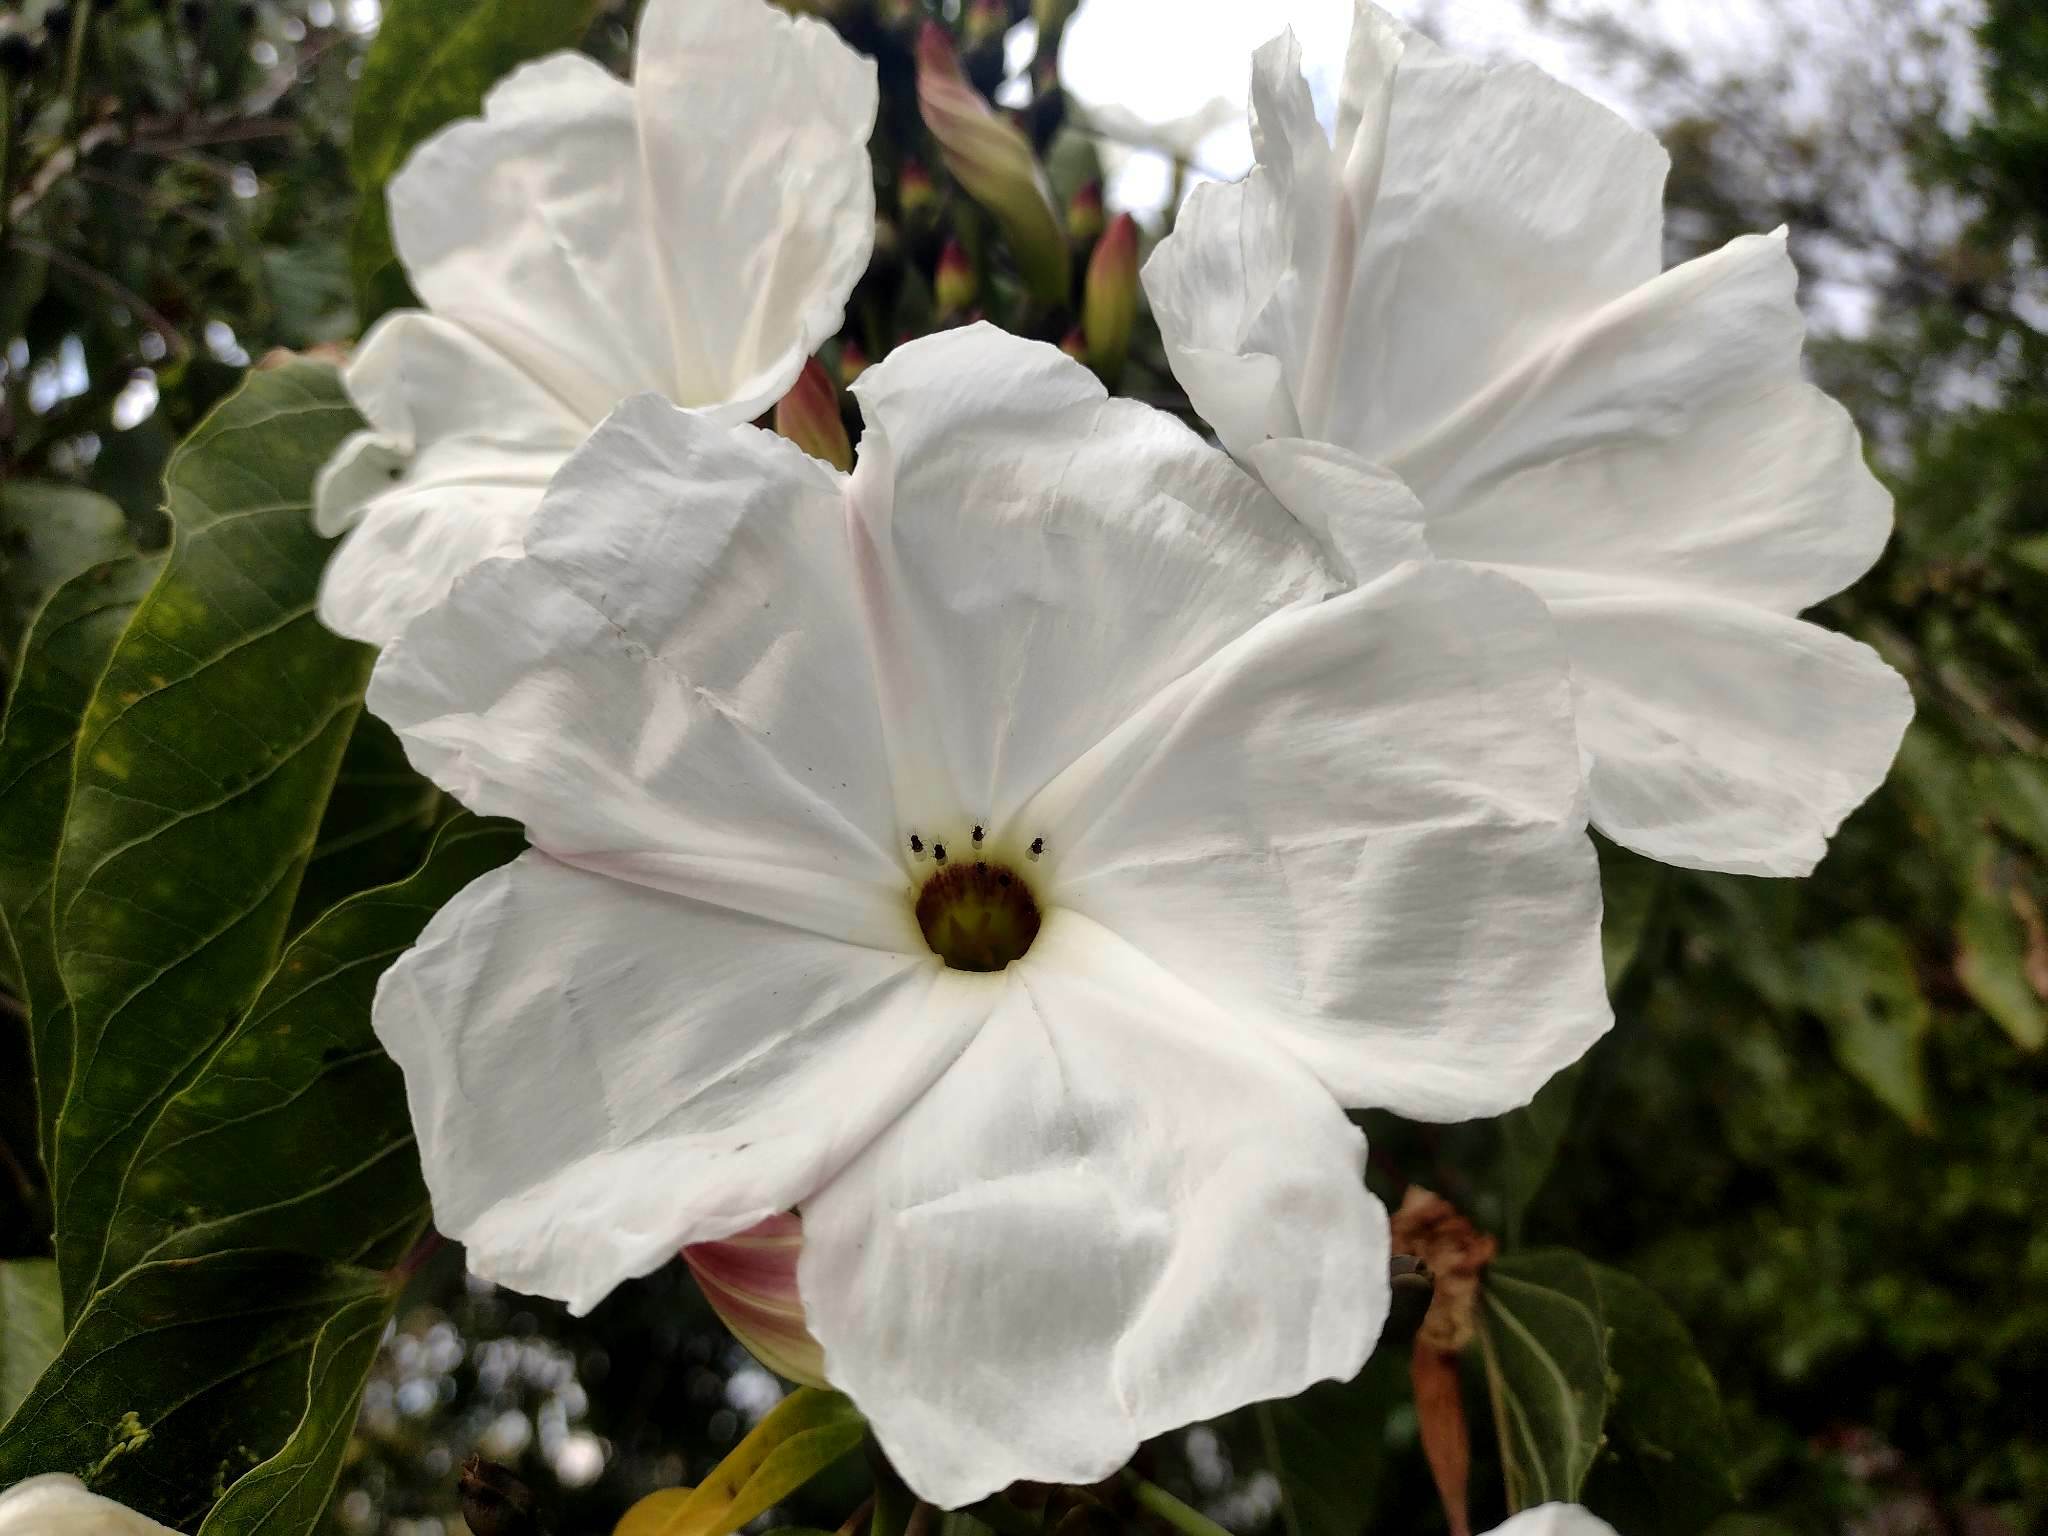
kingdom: Plantae
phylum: Tracheophyta
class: Magnoliopsida
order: Solanales
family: Convolvulaceae
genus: Ipomoea
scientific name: Ipomoea pauciflora
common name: Tree morningglory
